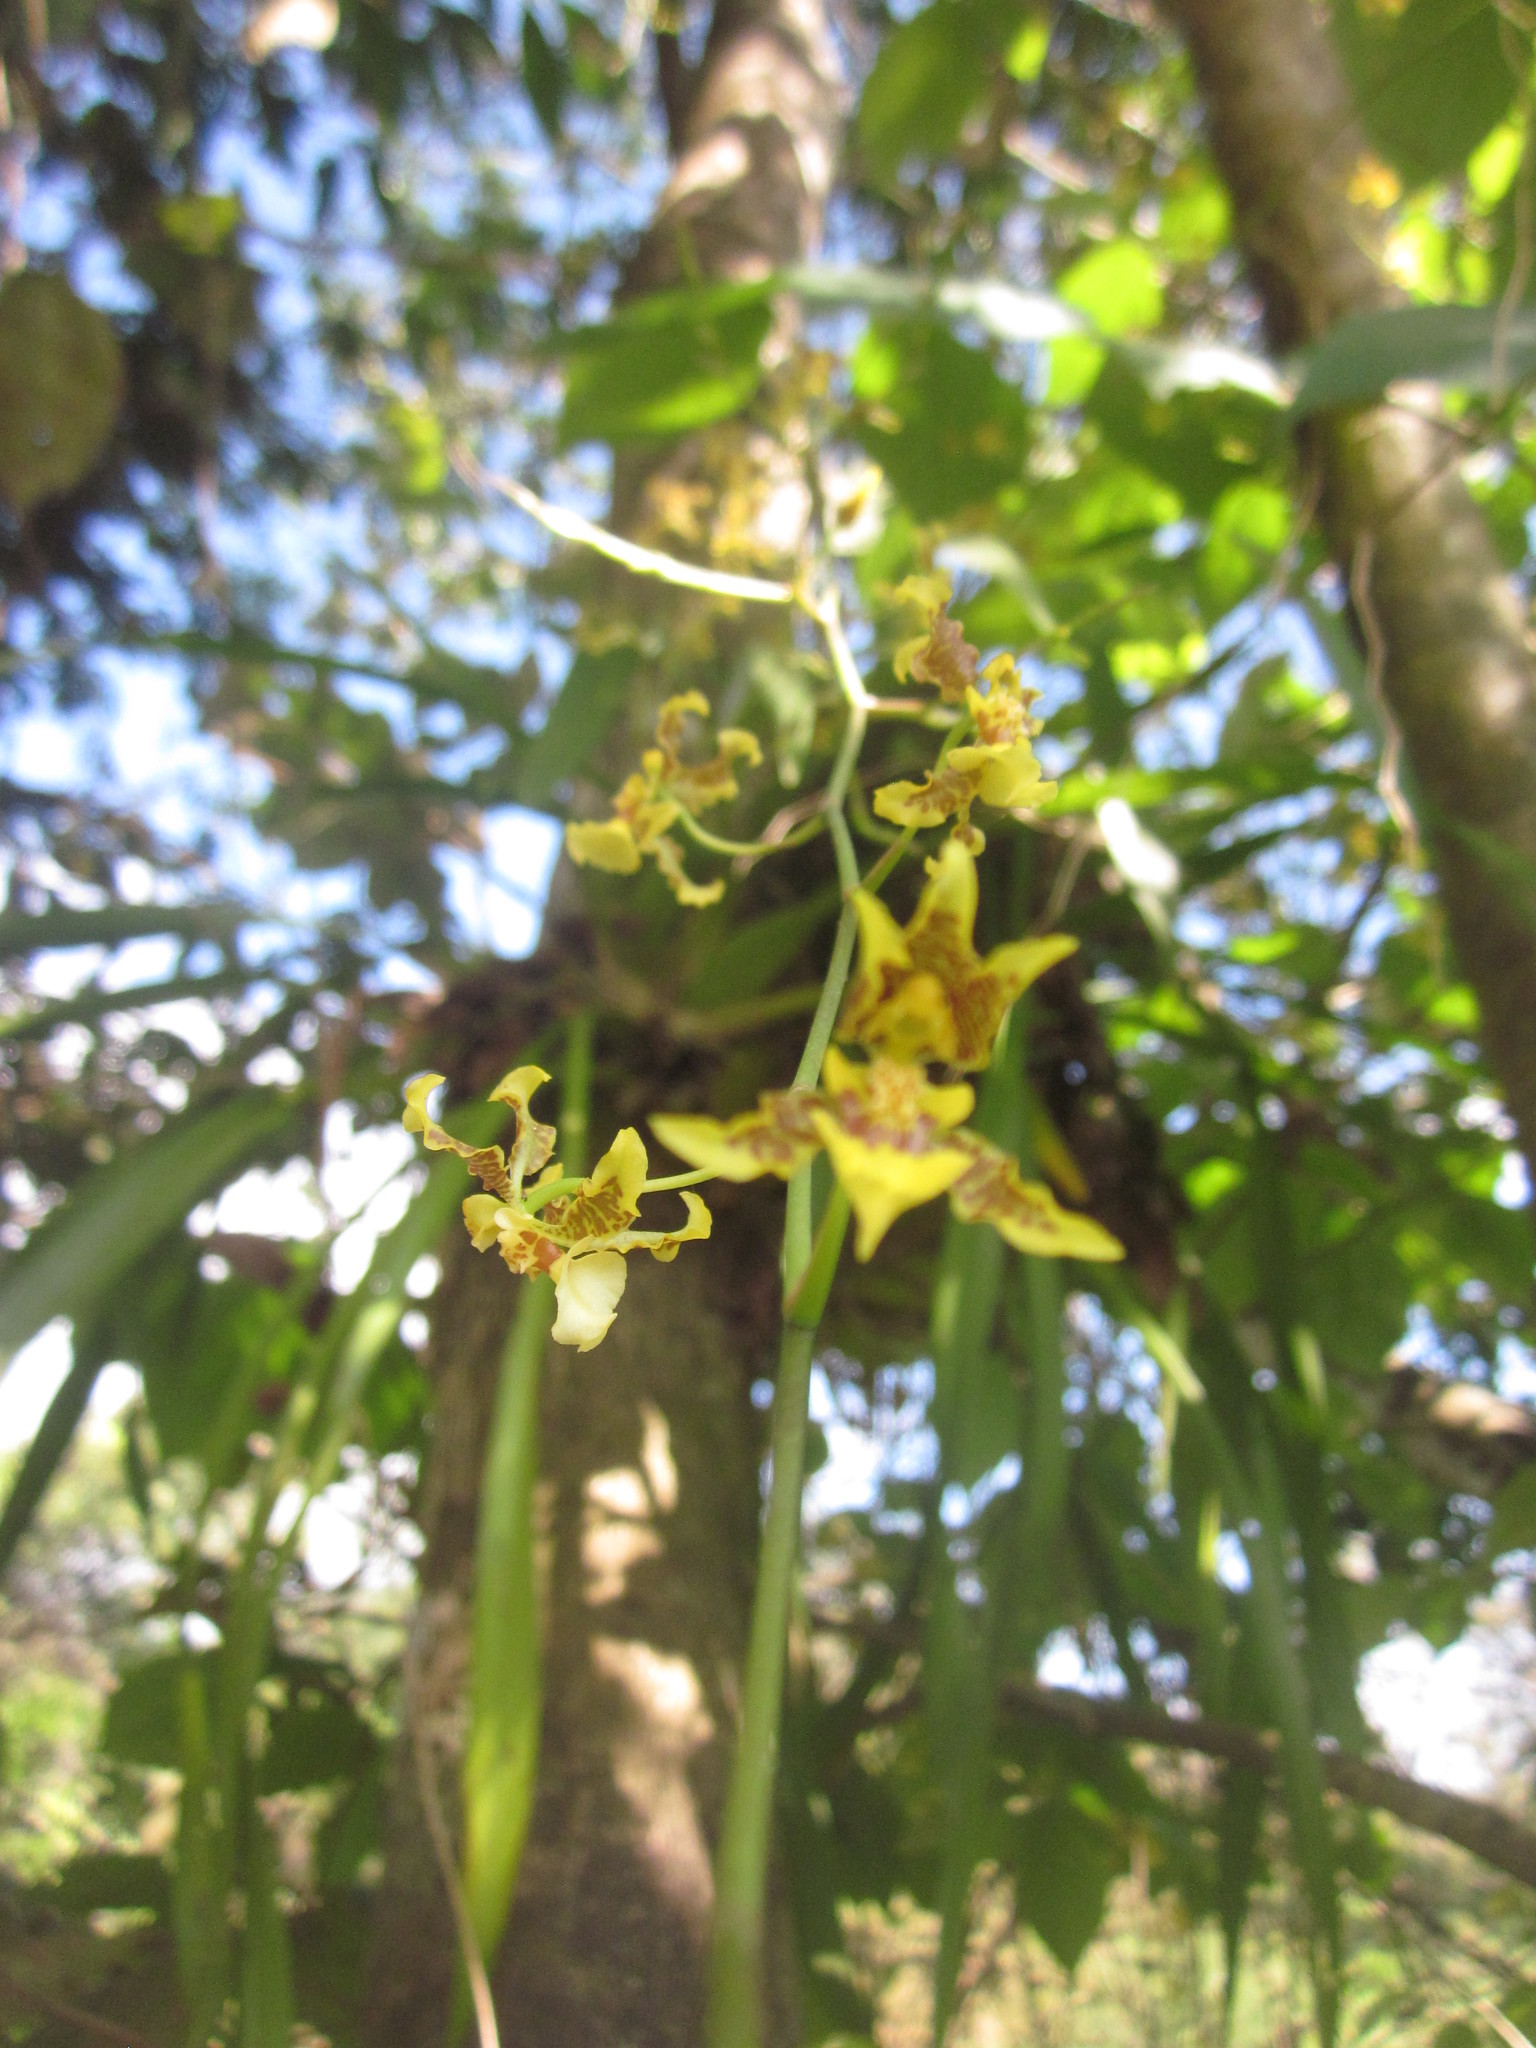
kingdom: Plantae
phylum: Tracheophyta
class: Liliopsida
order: Asparagales
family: Orchidaceae
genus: Oncidium
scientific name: Oncidium leleui
